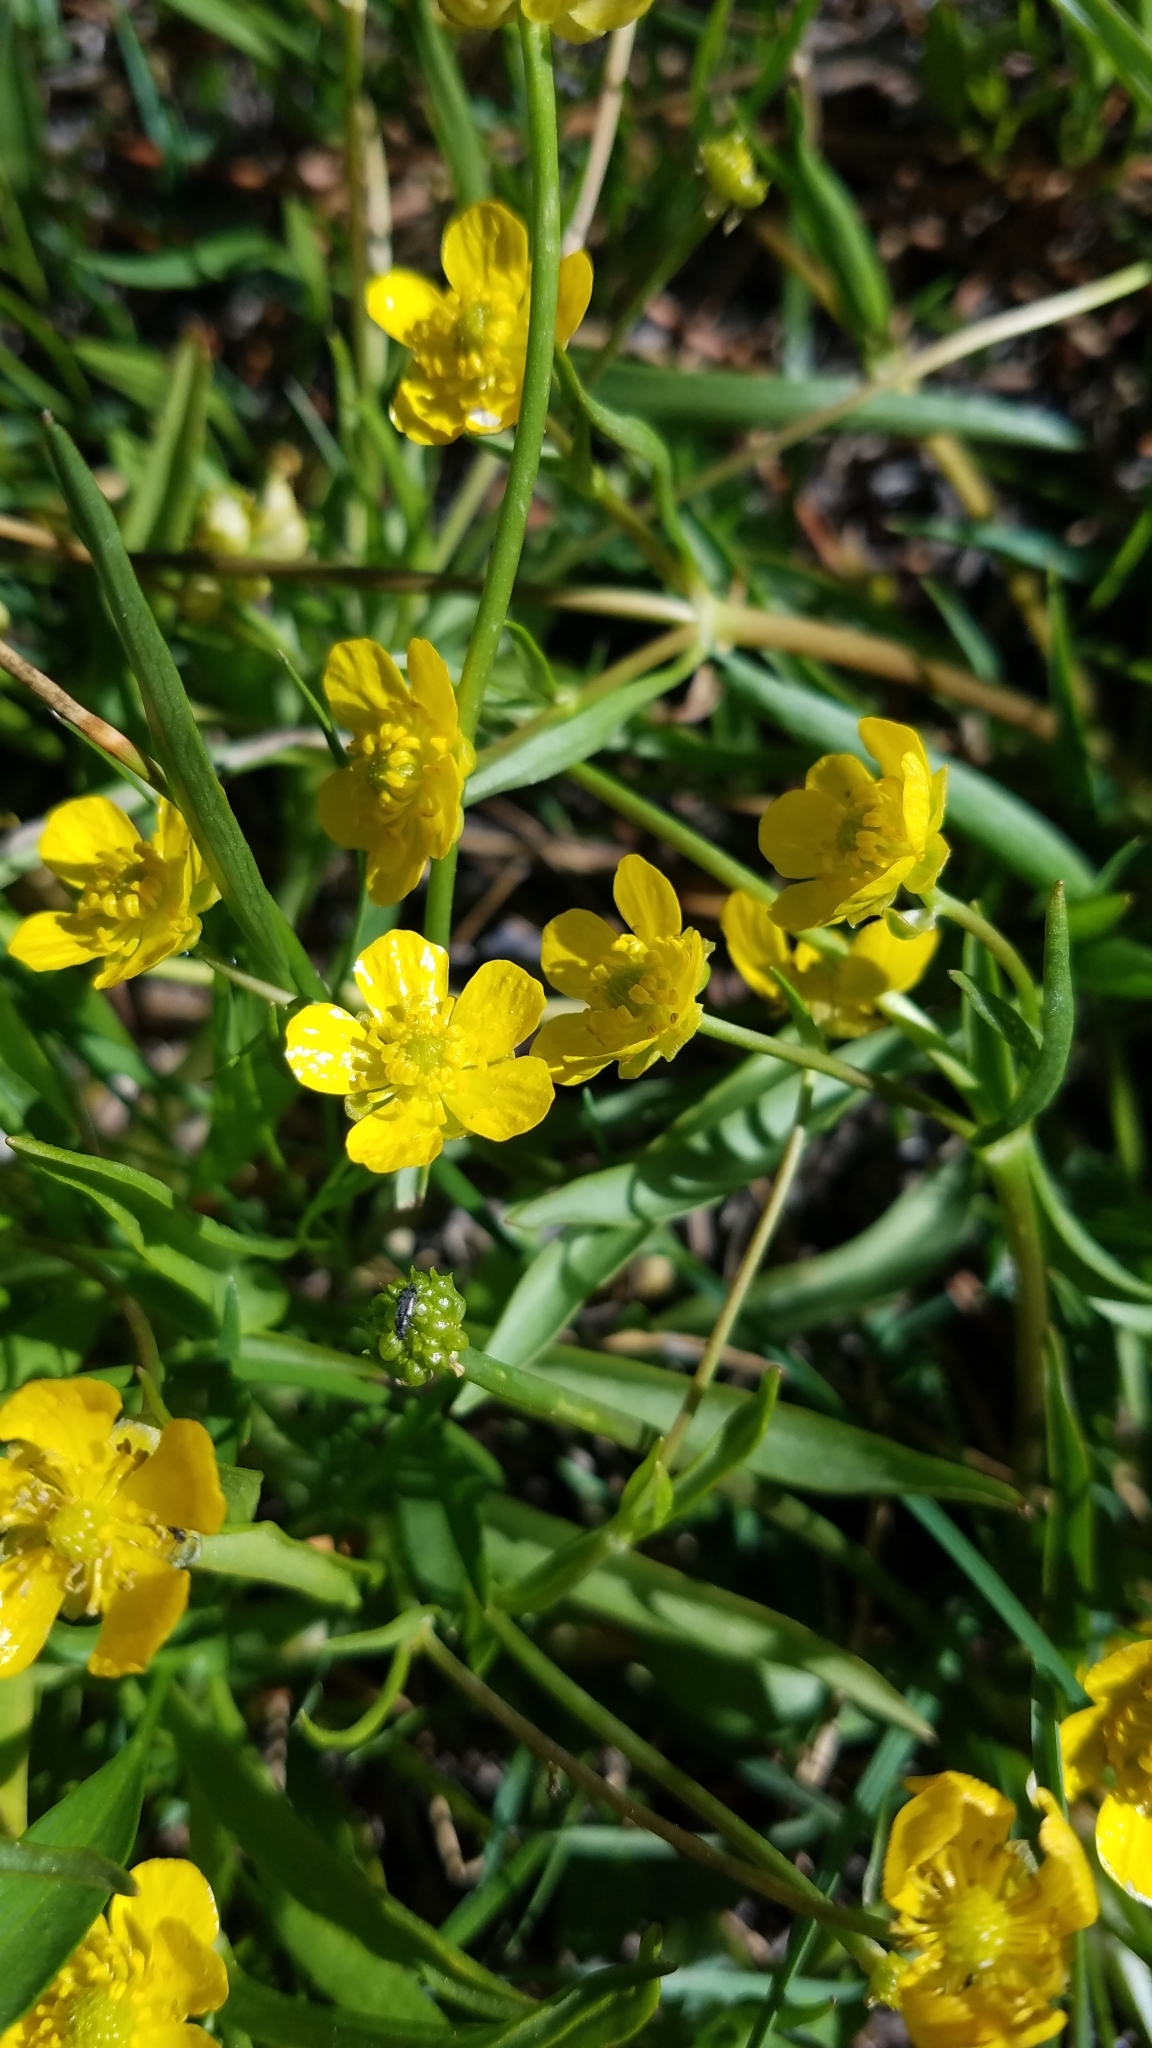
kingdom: Plantae
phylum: Tracheophyta
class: Magnoliopsida
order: Ranunculales
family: Ranunculaceae
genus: Ranunculus
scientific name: Ranunculus alismifolius
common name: Plantain-leaved buttercup
